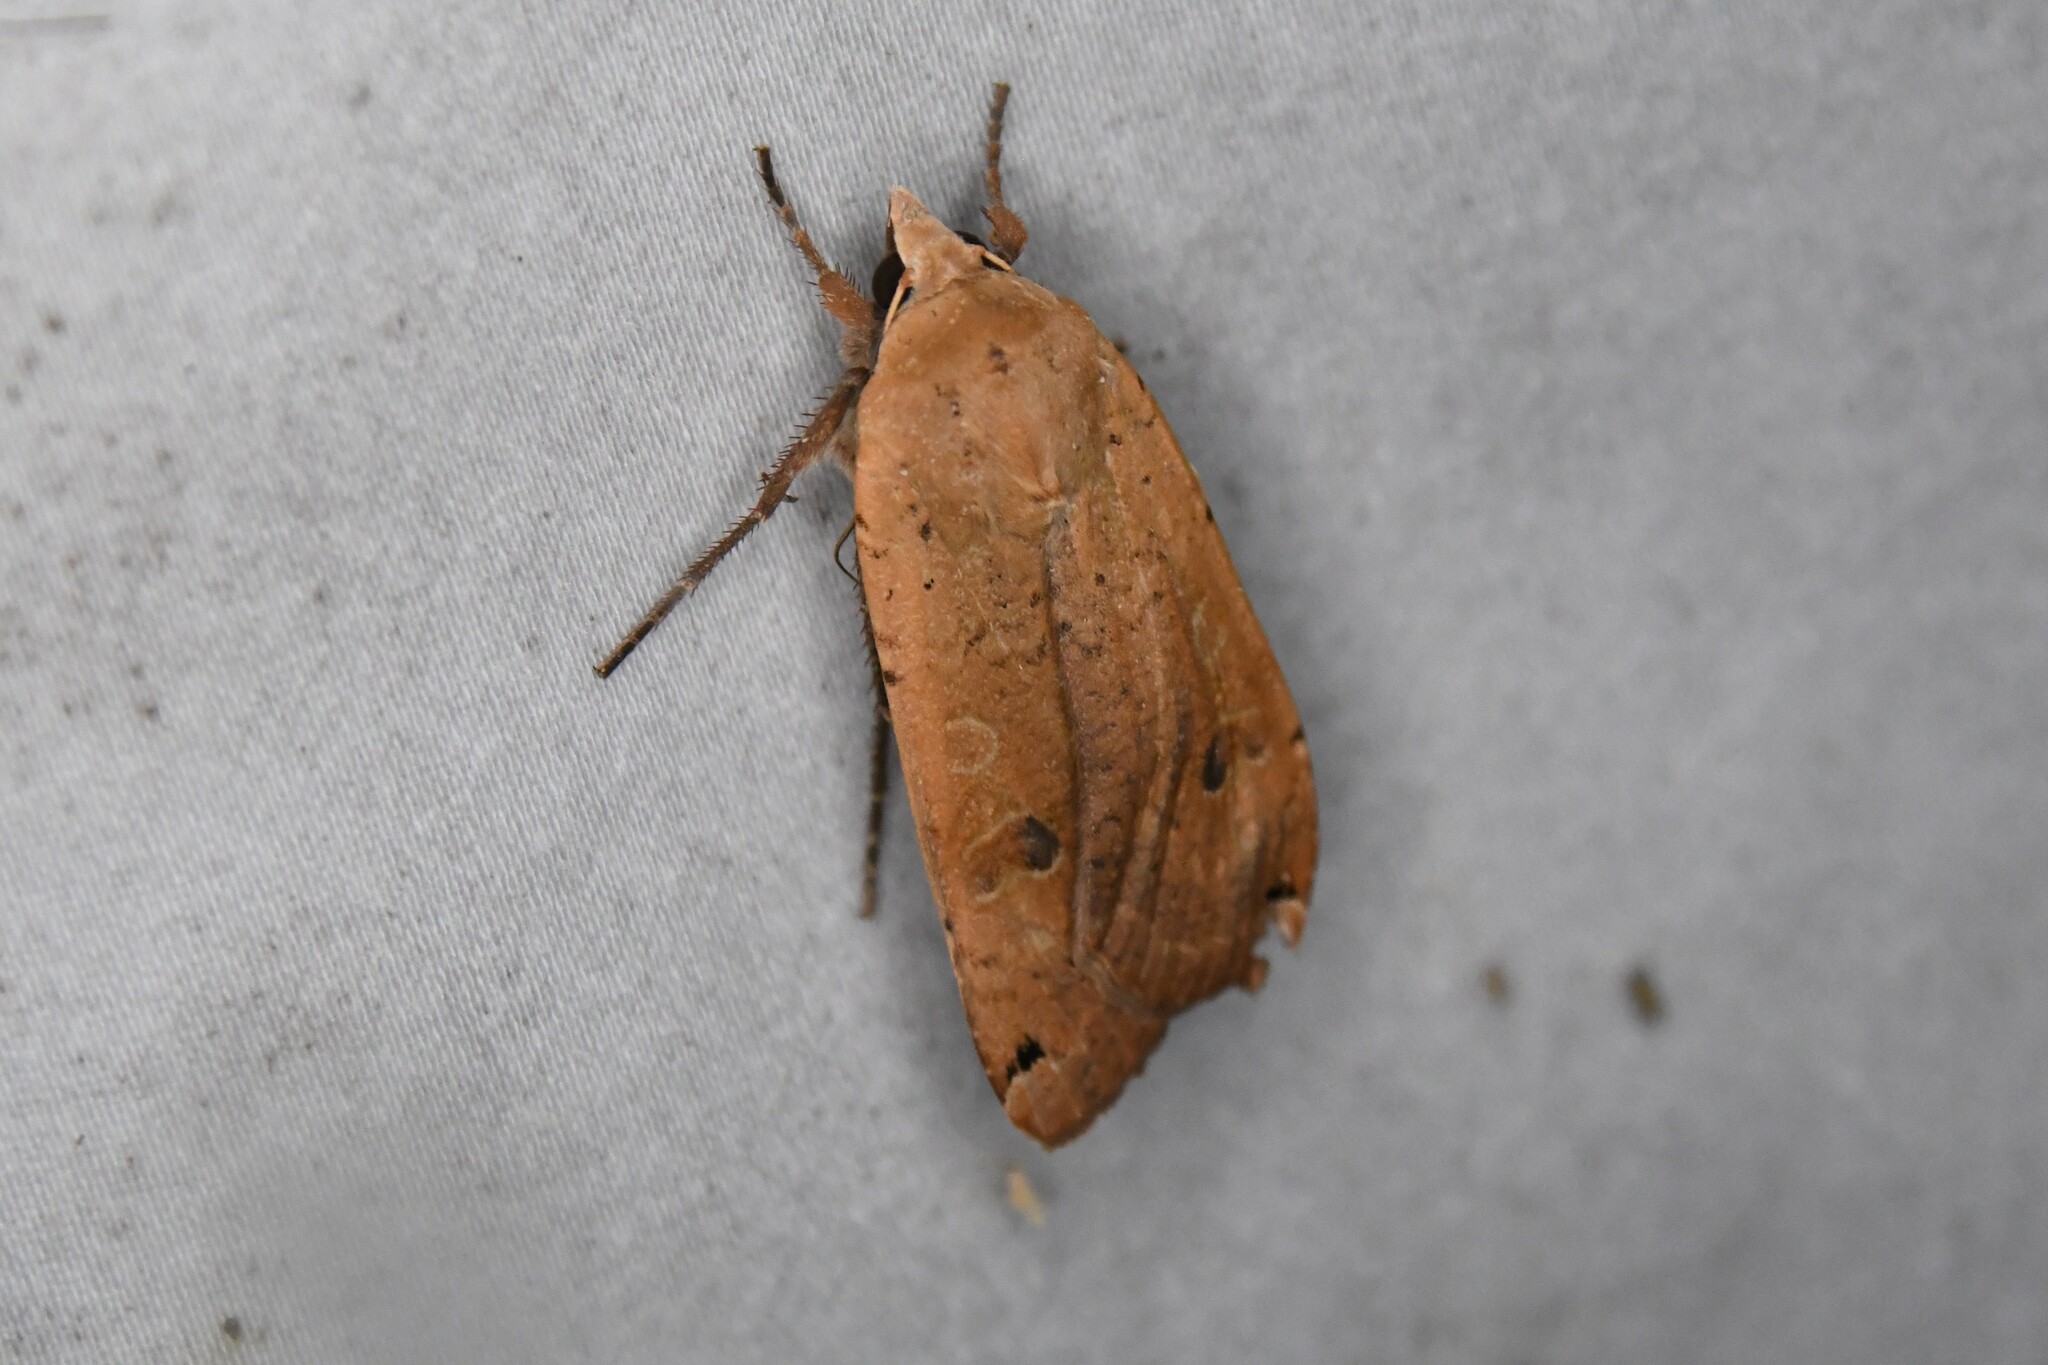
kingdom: Animalia
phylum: Arthropoda
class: Insecta
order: Lepidoptera
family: Noctuidae
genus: Noctua
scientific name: Noctua pronuba
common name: Large yellow underwing
